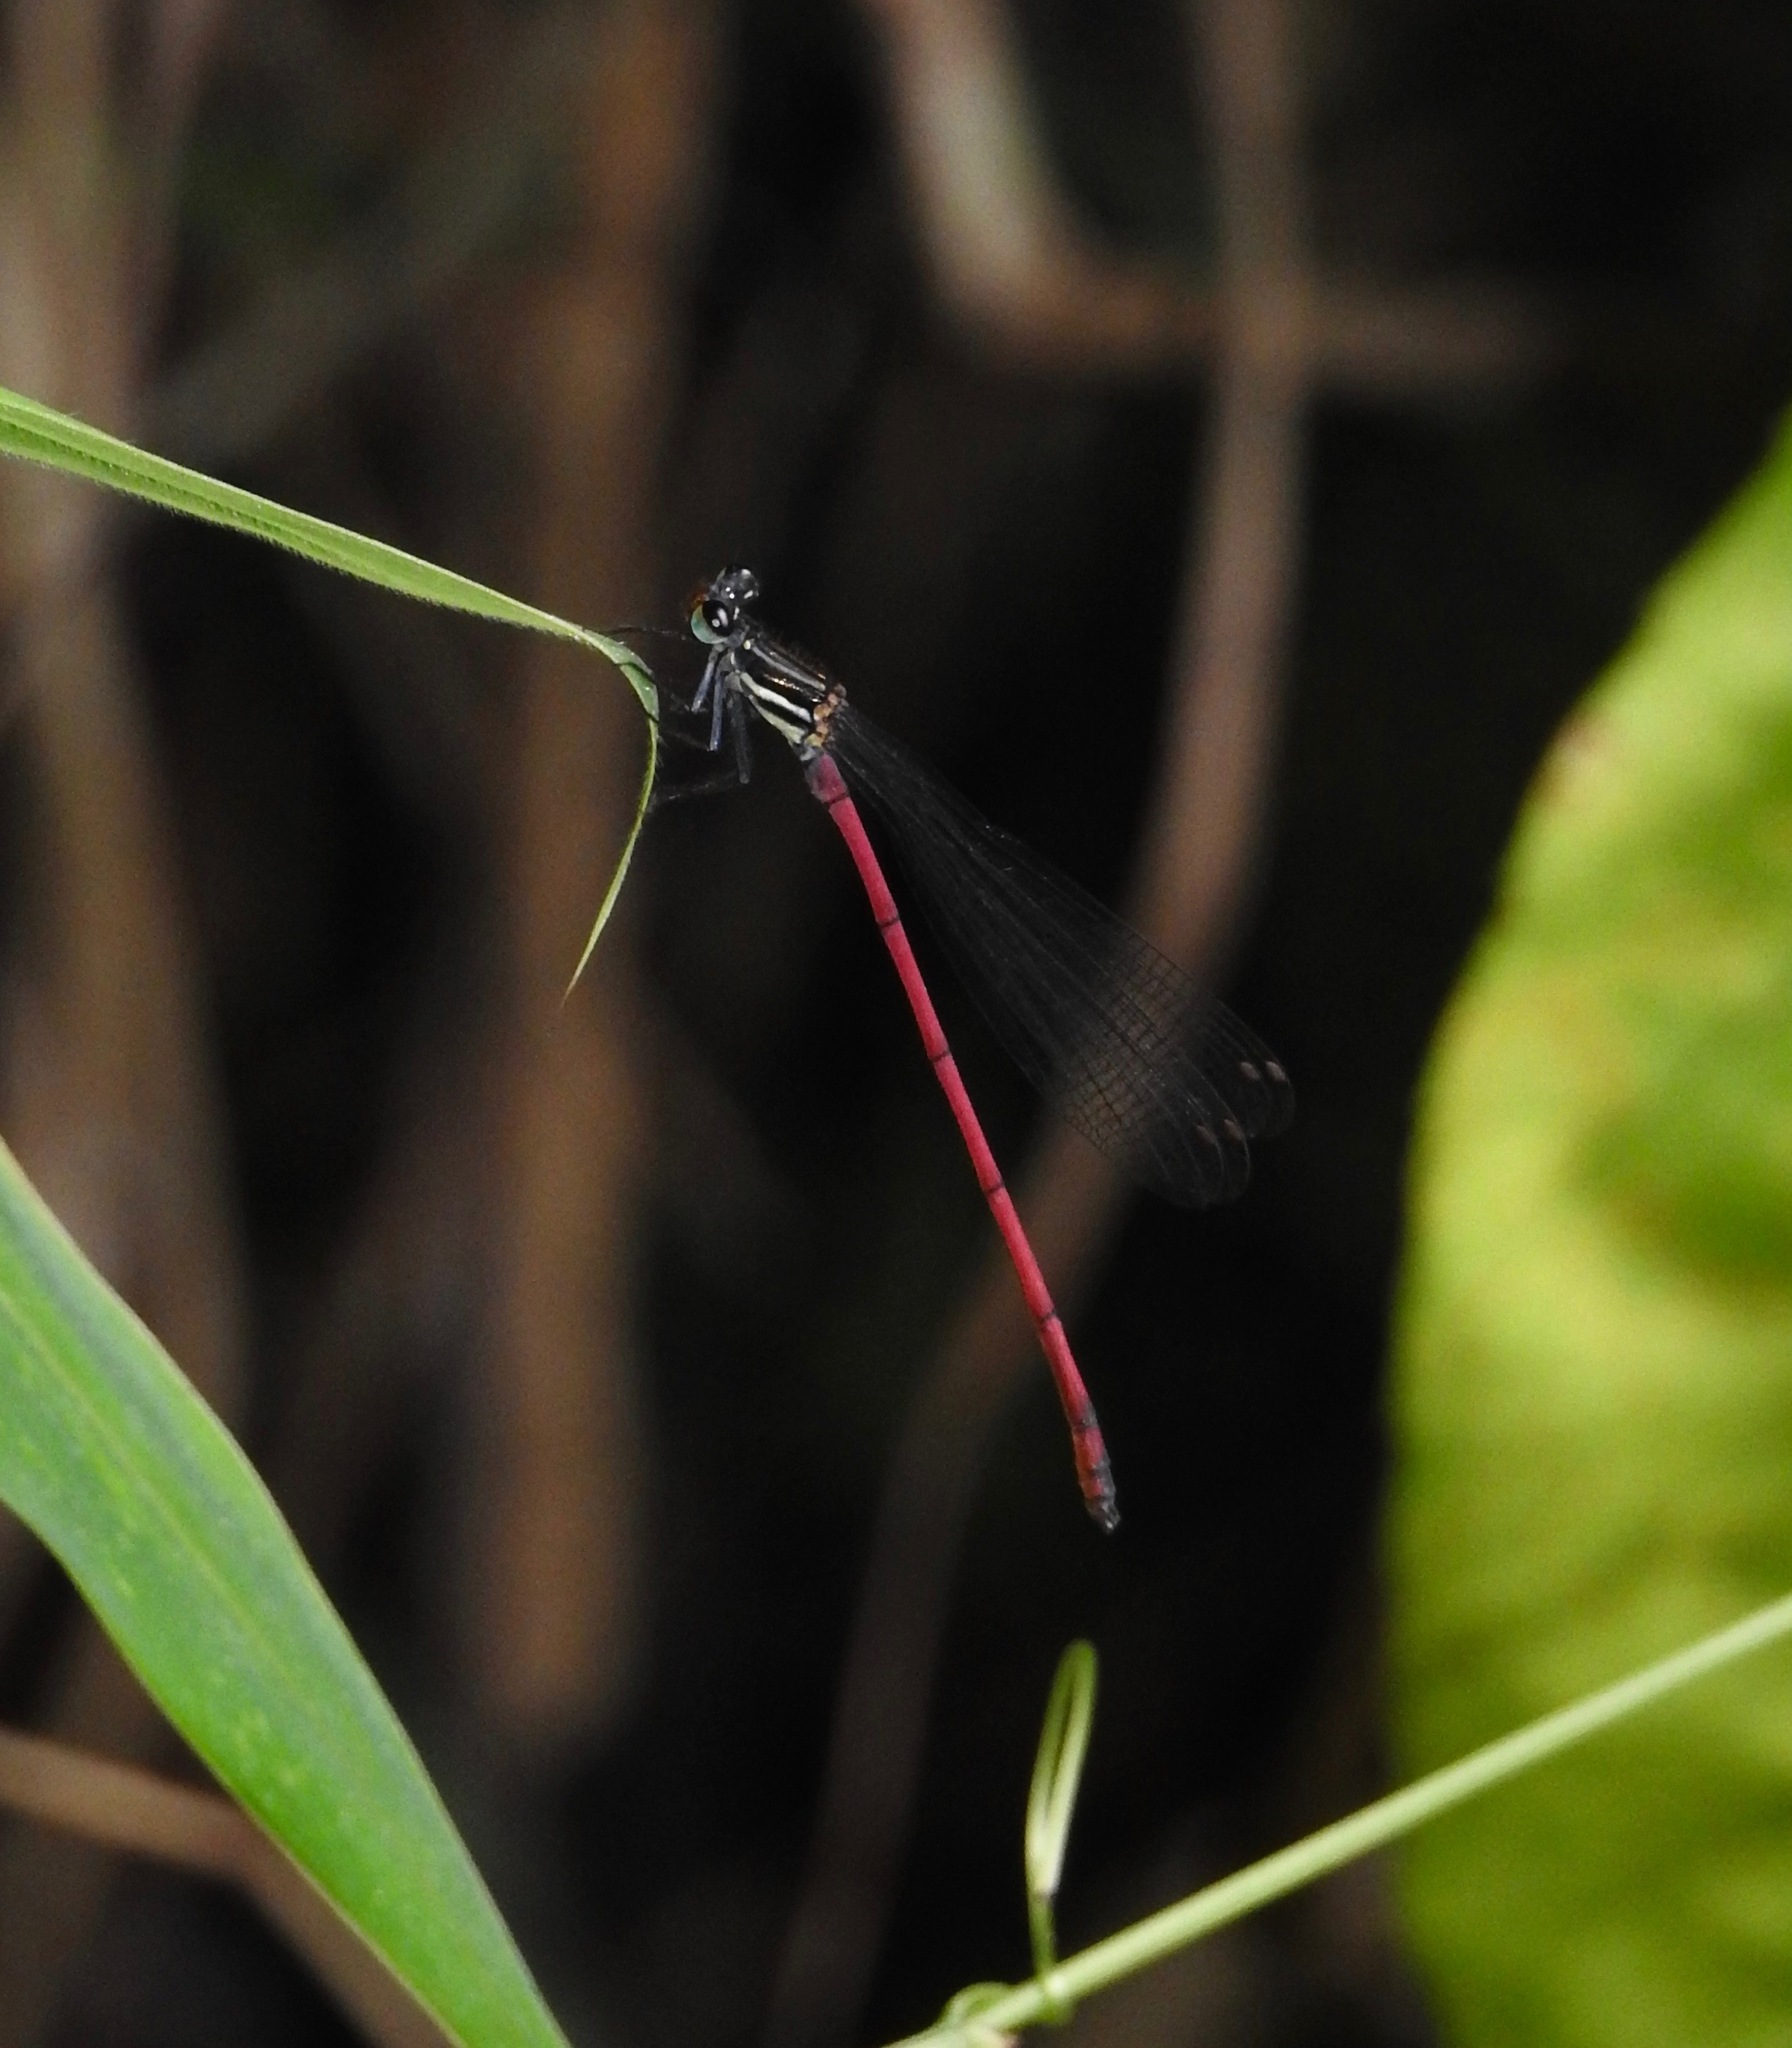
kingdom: Animalia
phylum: Arthropoda
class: Insecta
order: Odonata
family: Platycnemididae
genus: Calicnemia
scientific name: Calicnemia sinensis
